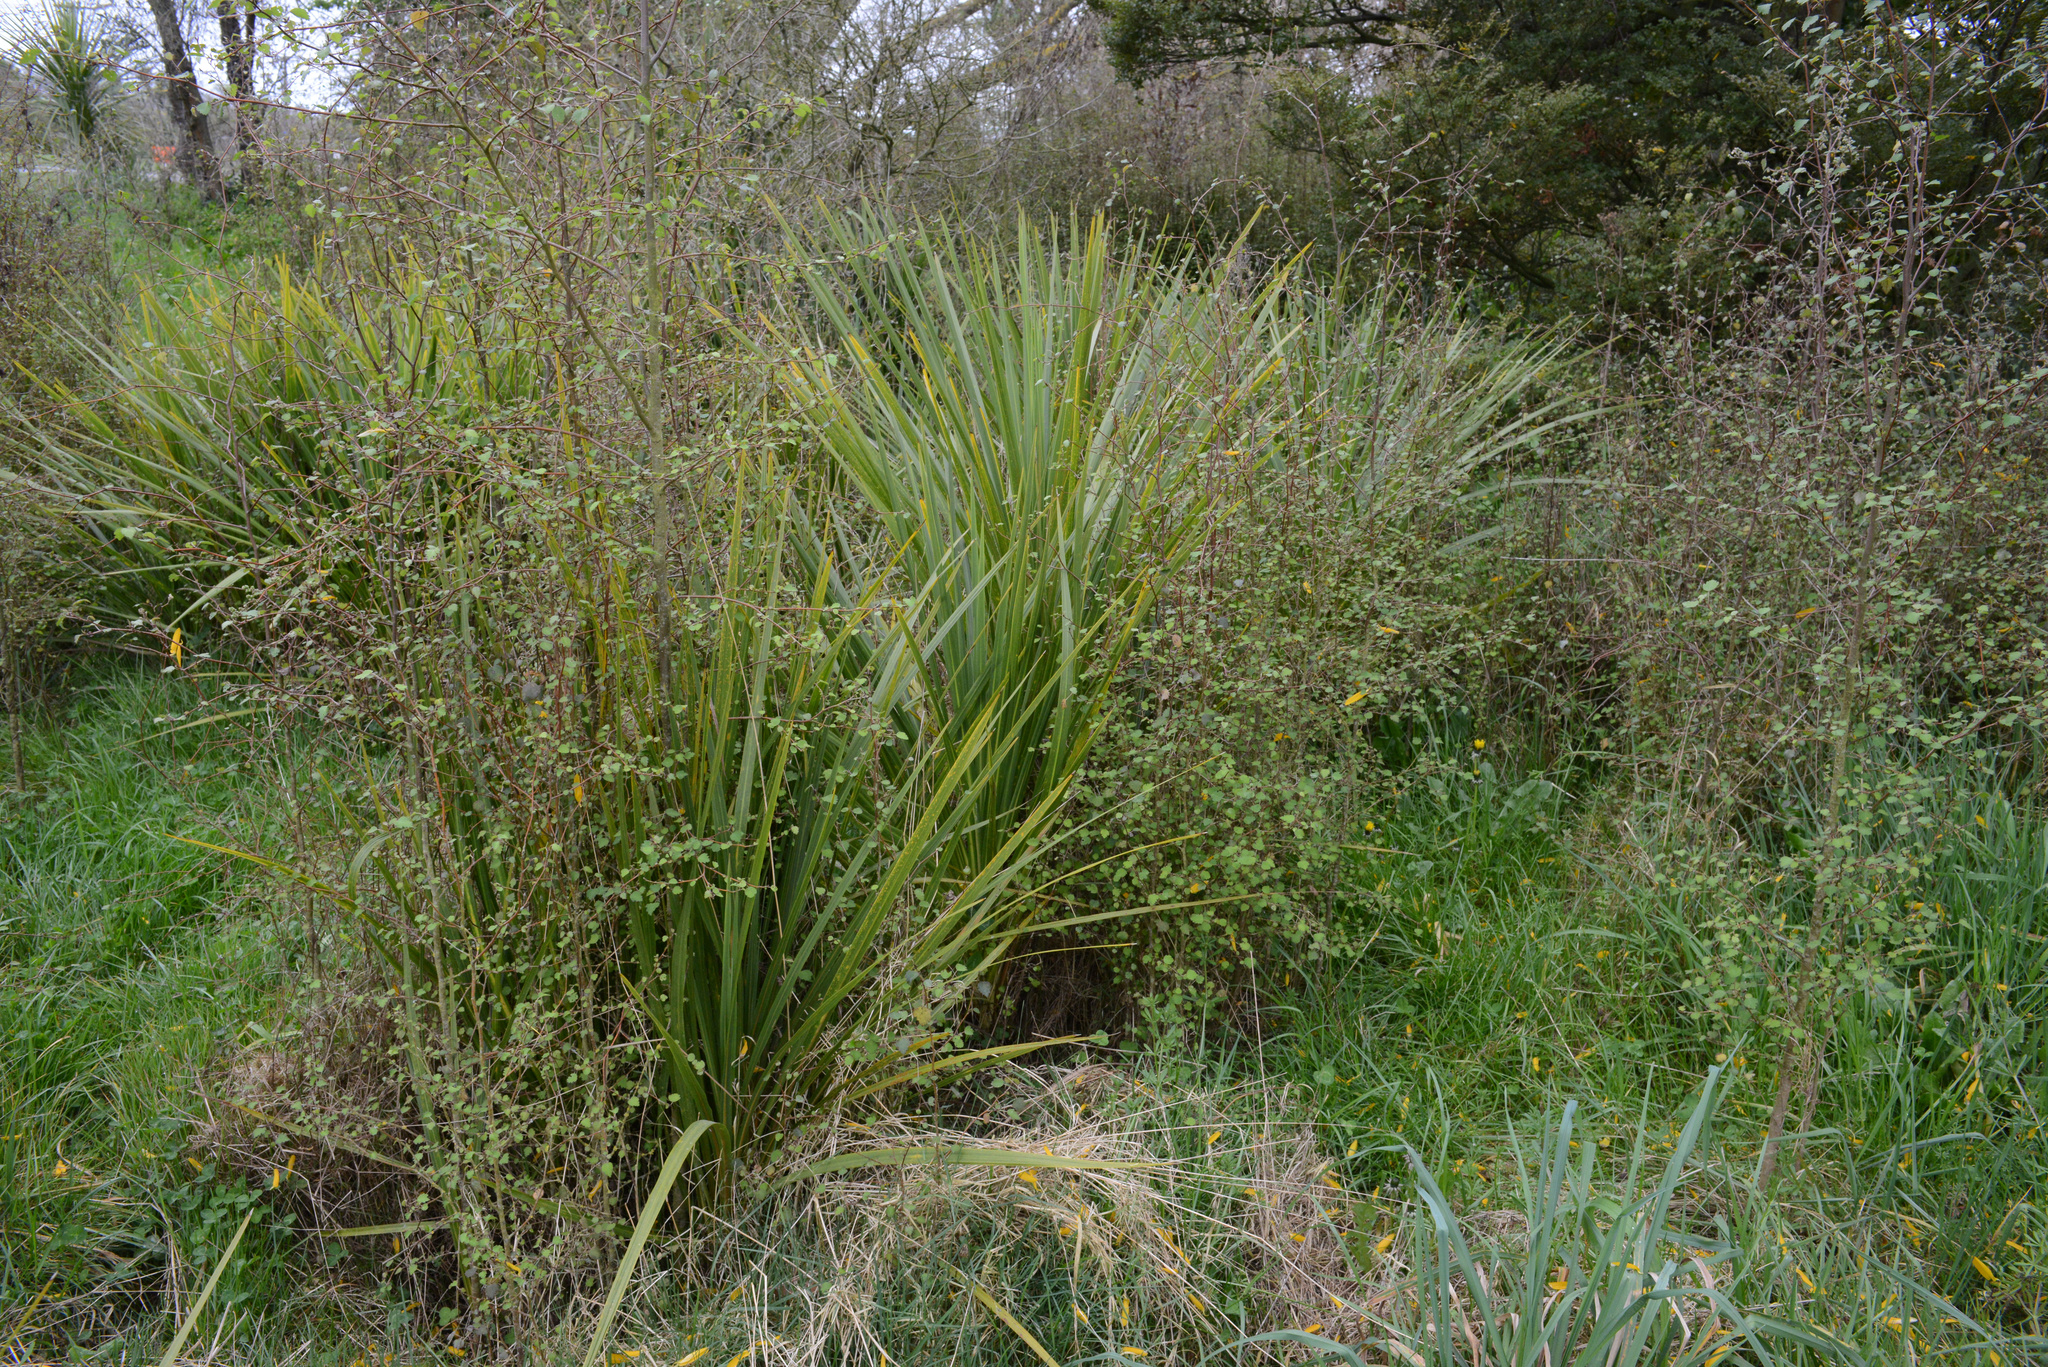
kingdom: Plantae
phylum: Tracheophyta
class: Liliopsida
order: Asparagales
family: Asparagaceae
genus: Cordyline
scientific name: Cordyline australis
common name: Cabbage-palm
